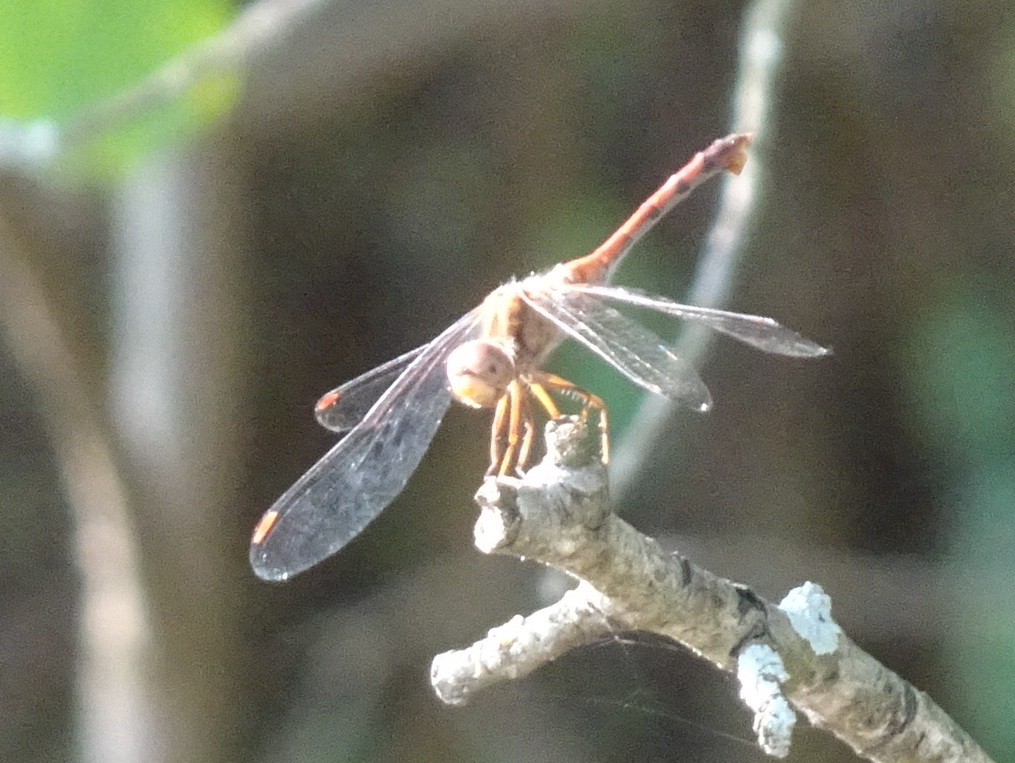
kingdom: Animalia
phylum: Arthropoda
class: Insecta
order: Odonata
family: Libellulidae
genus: Sympetrum
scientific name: Sympetrum vicinum
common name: Autumn meadowhawk
